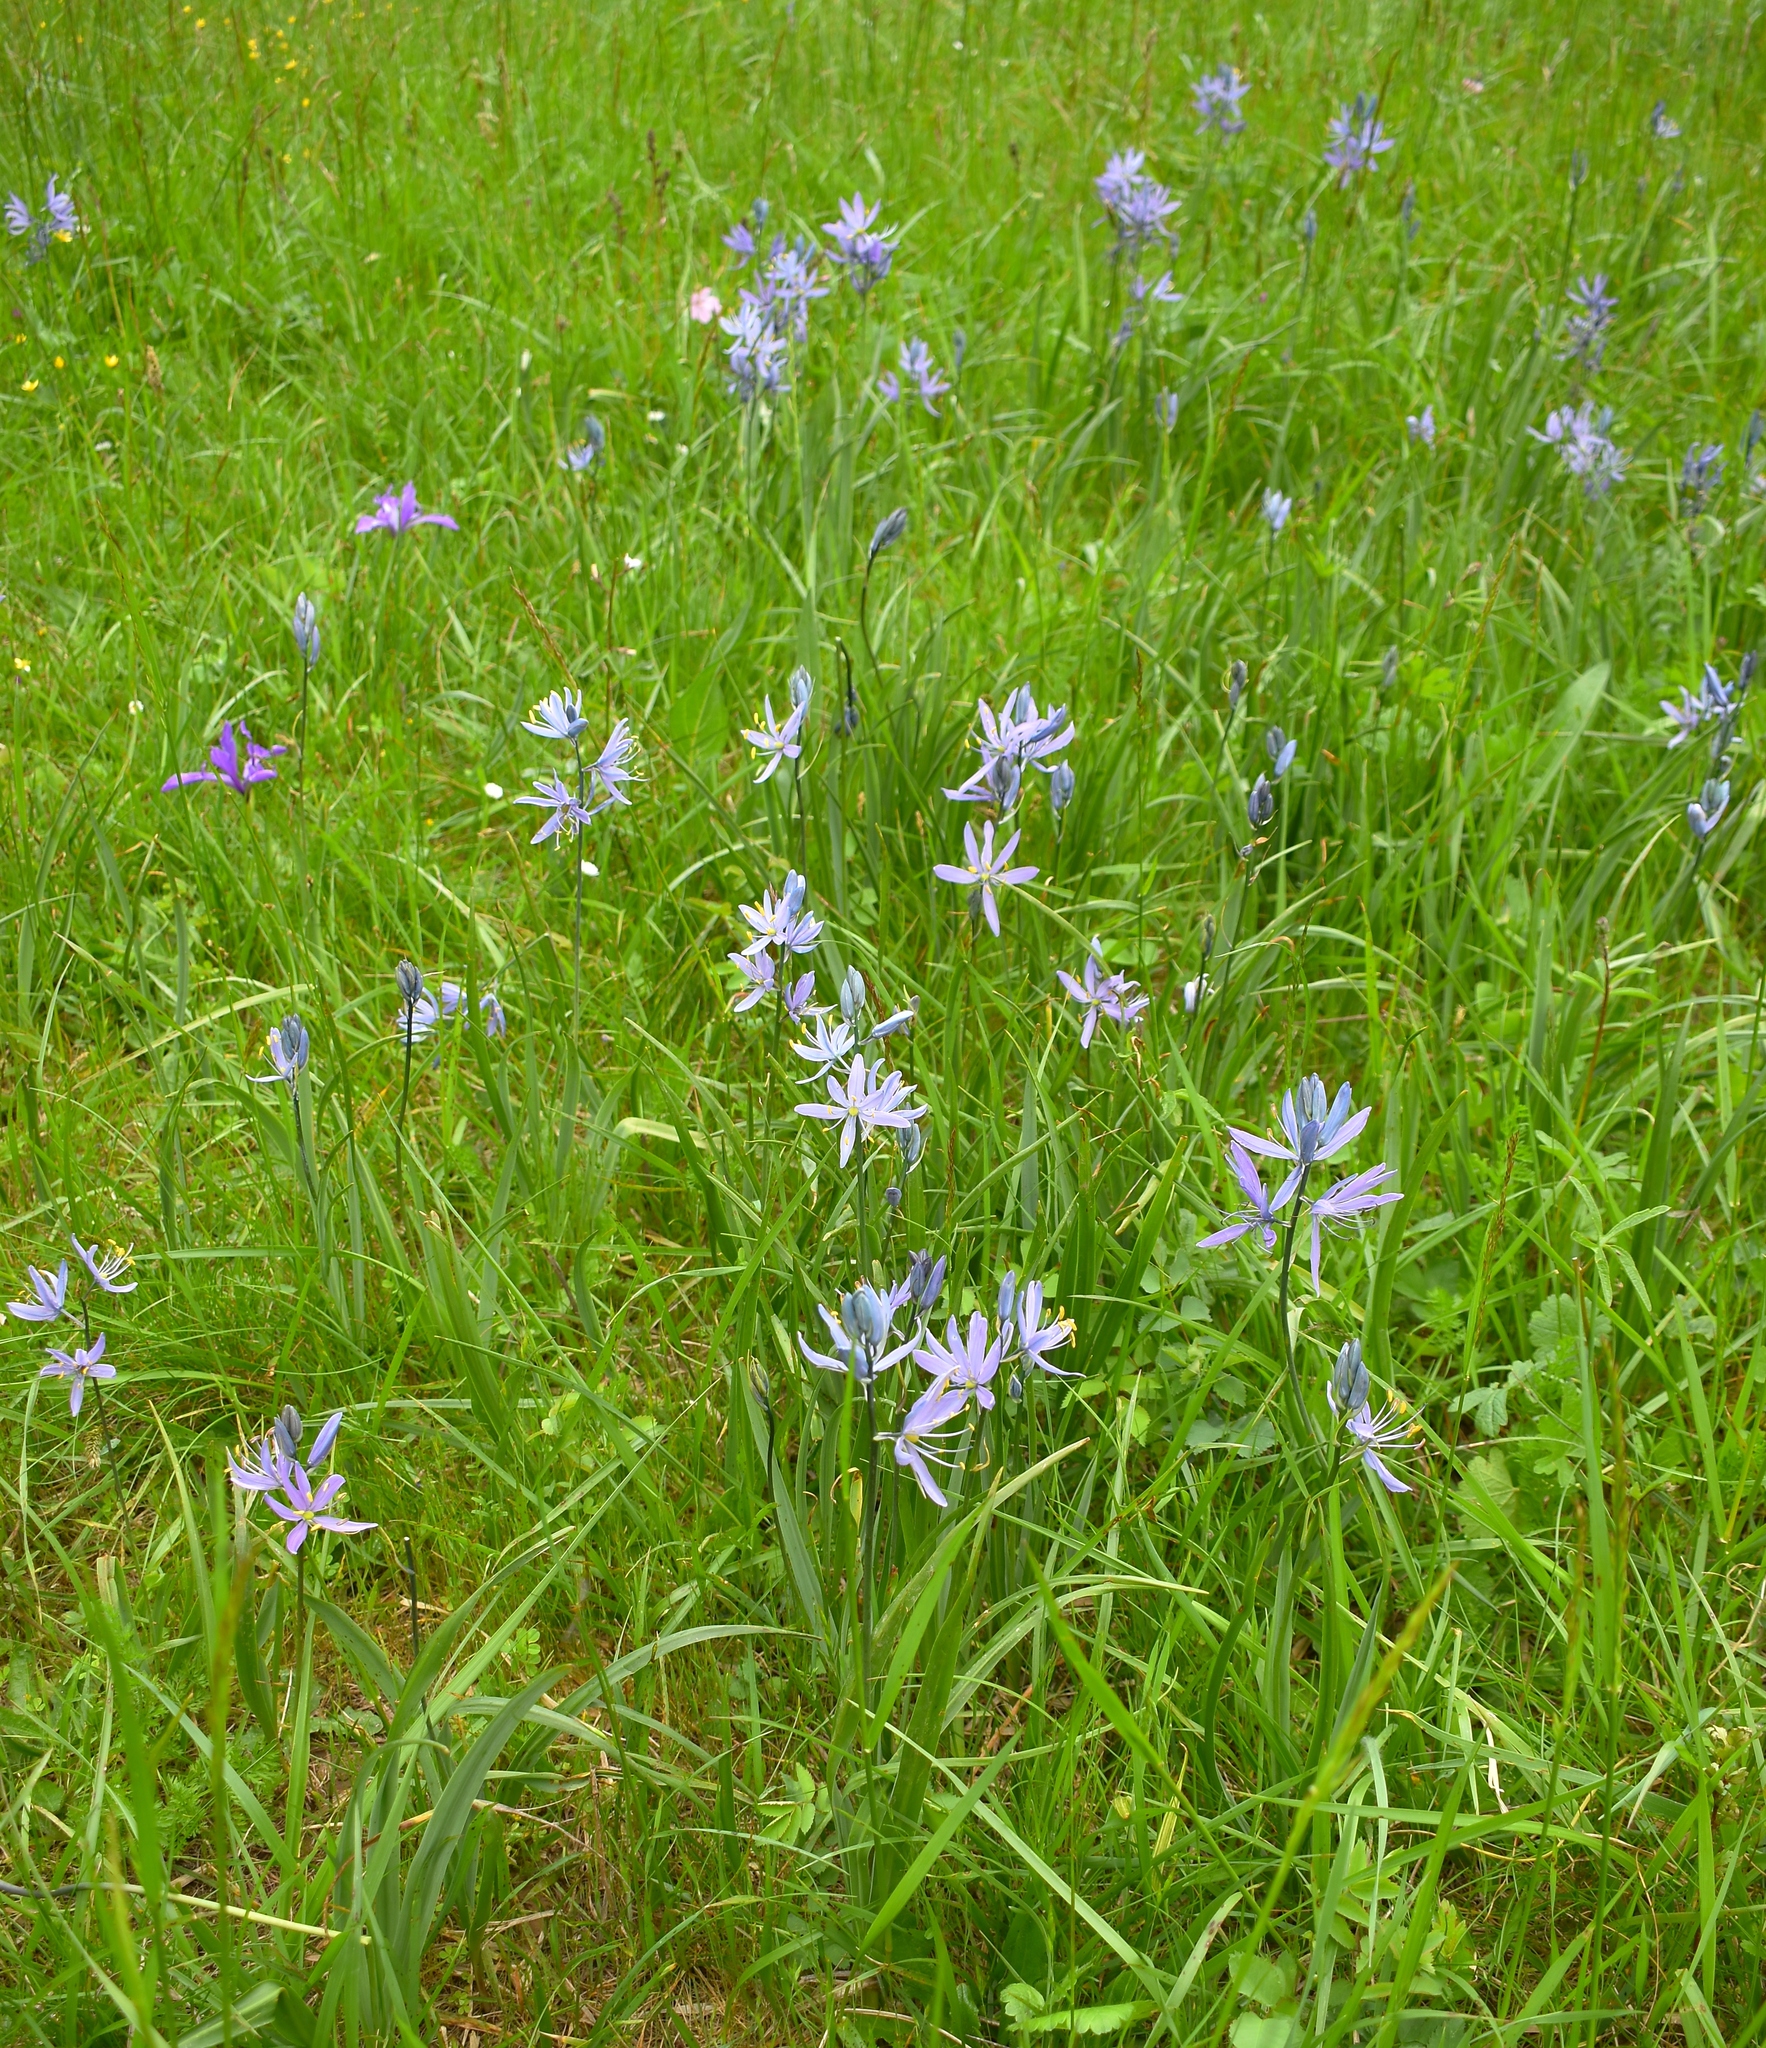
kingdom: Plantae
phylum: Tracheophyta
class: Liliopsida
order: Asparagales
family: Asparagaceae
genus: Camassia
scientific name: Camassia quamash
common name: Common camas
